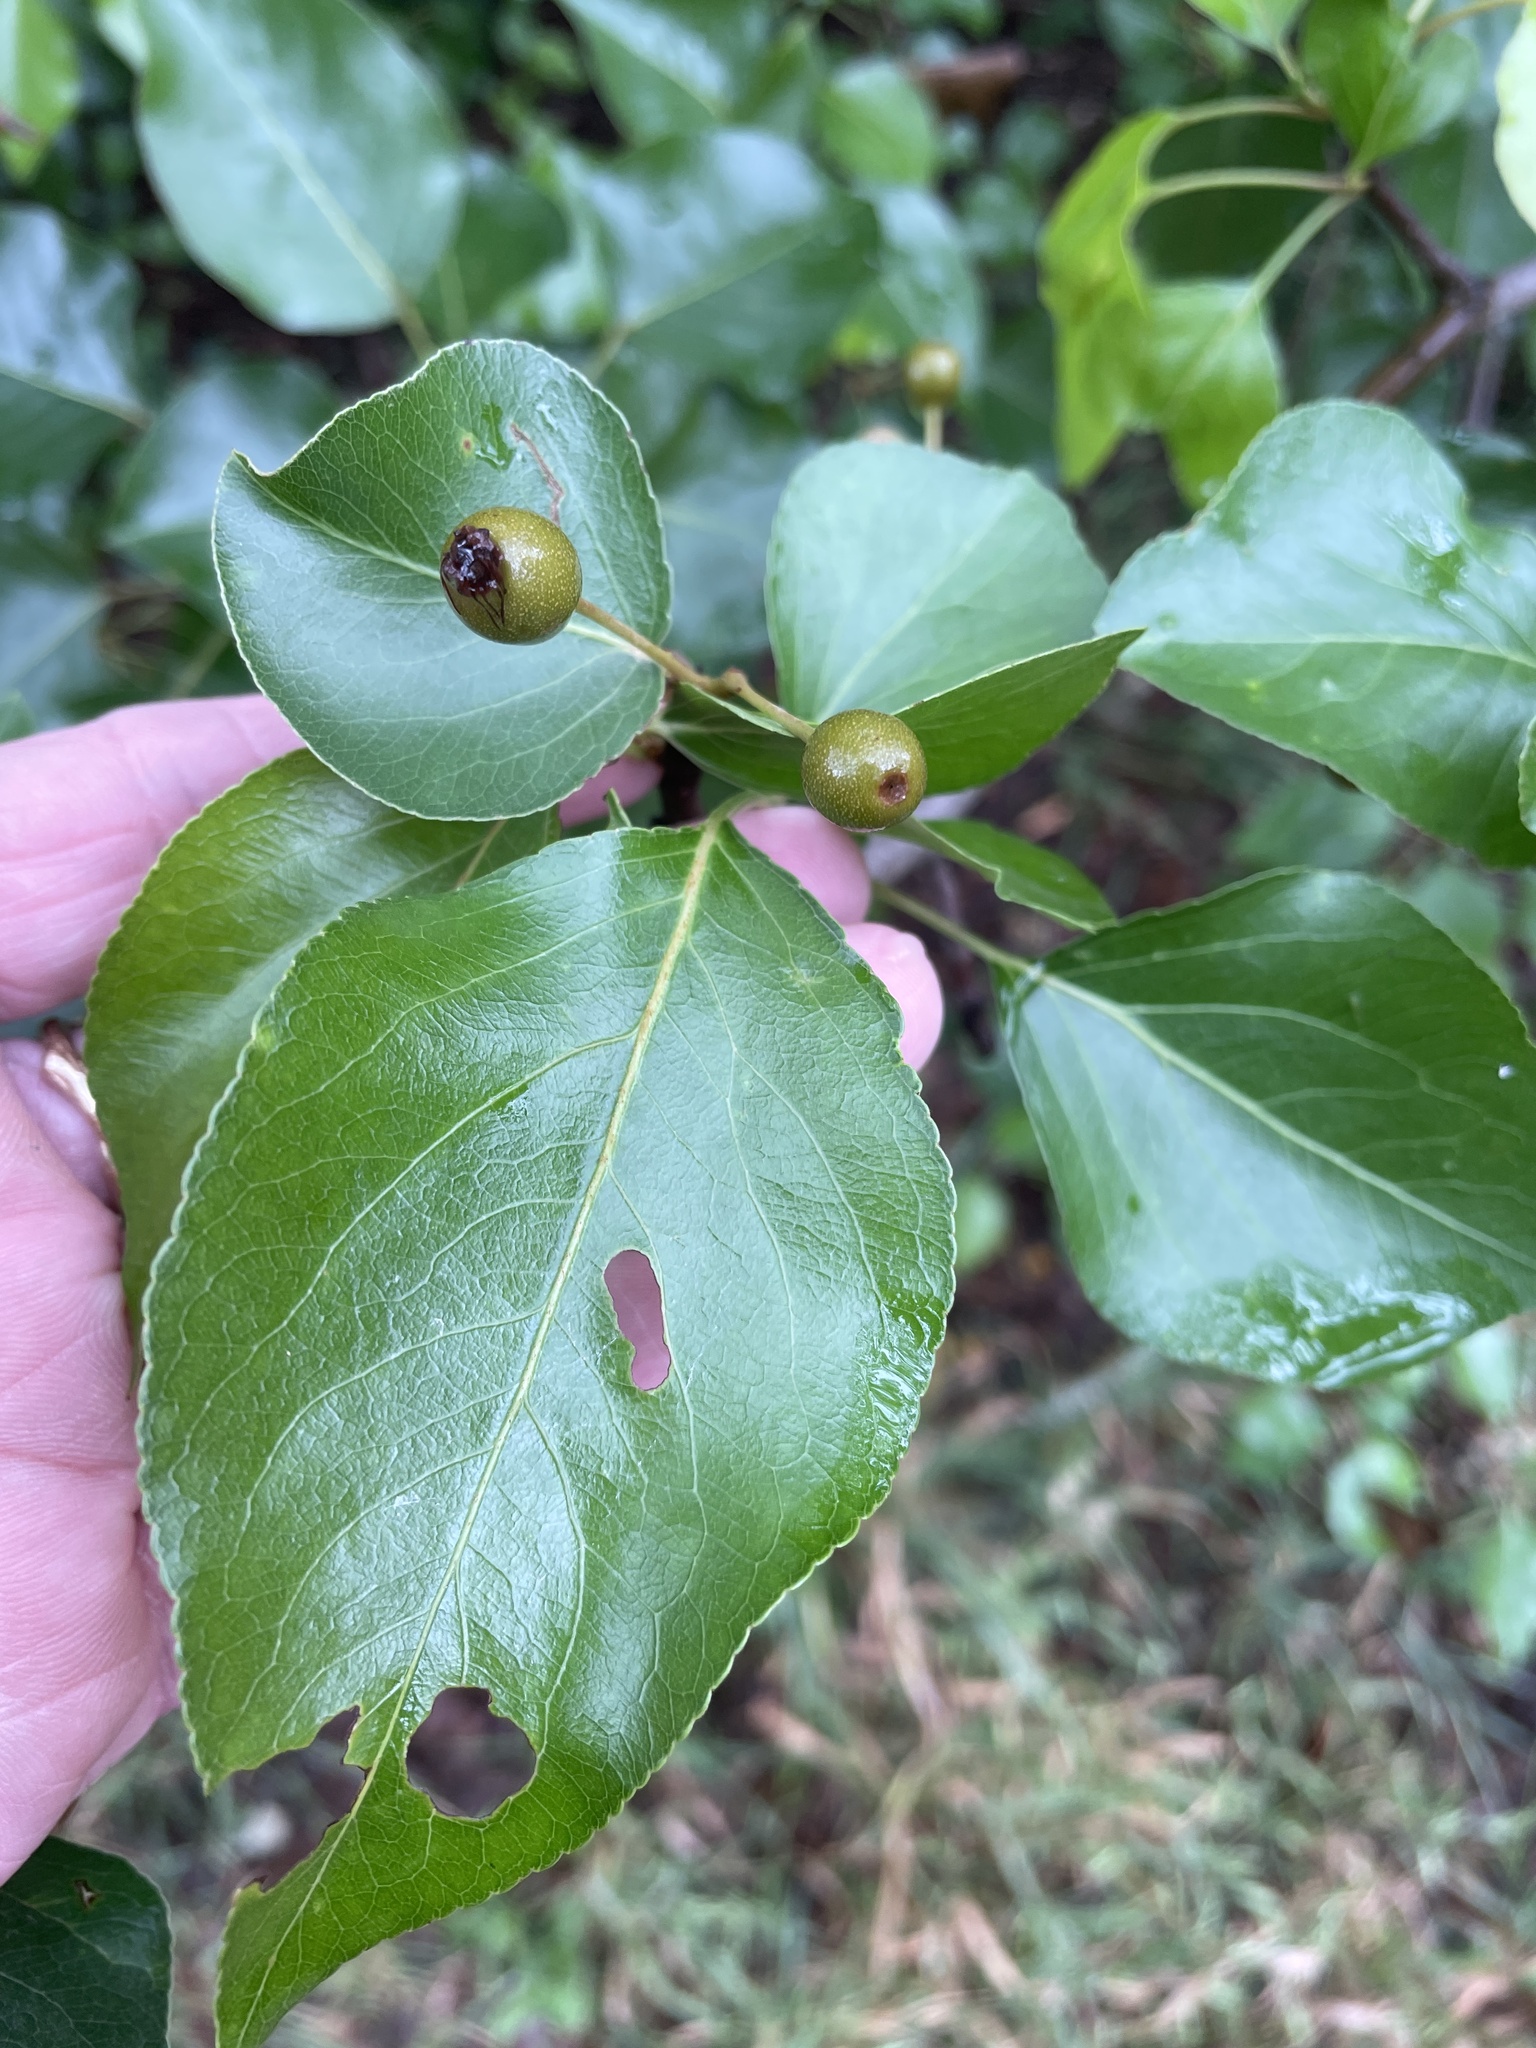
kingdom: Plantae
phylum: Tracheophyta
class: Magnoliopsida
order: Rosales
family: Rosaceae
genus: Pyrus
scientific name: Pyrus calleryana
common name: Callery pear
